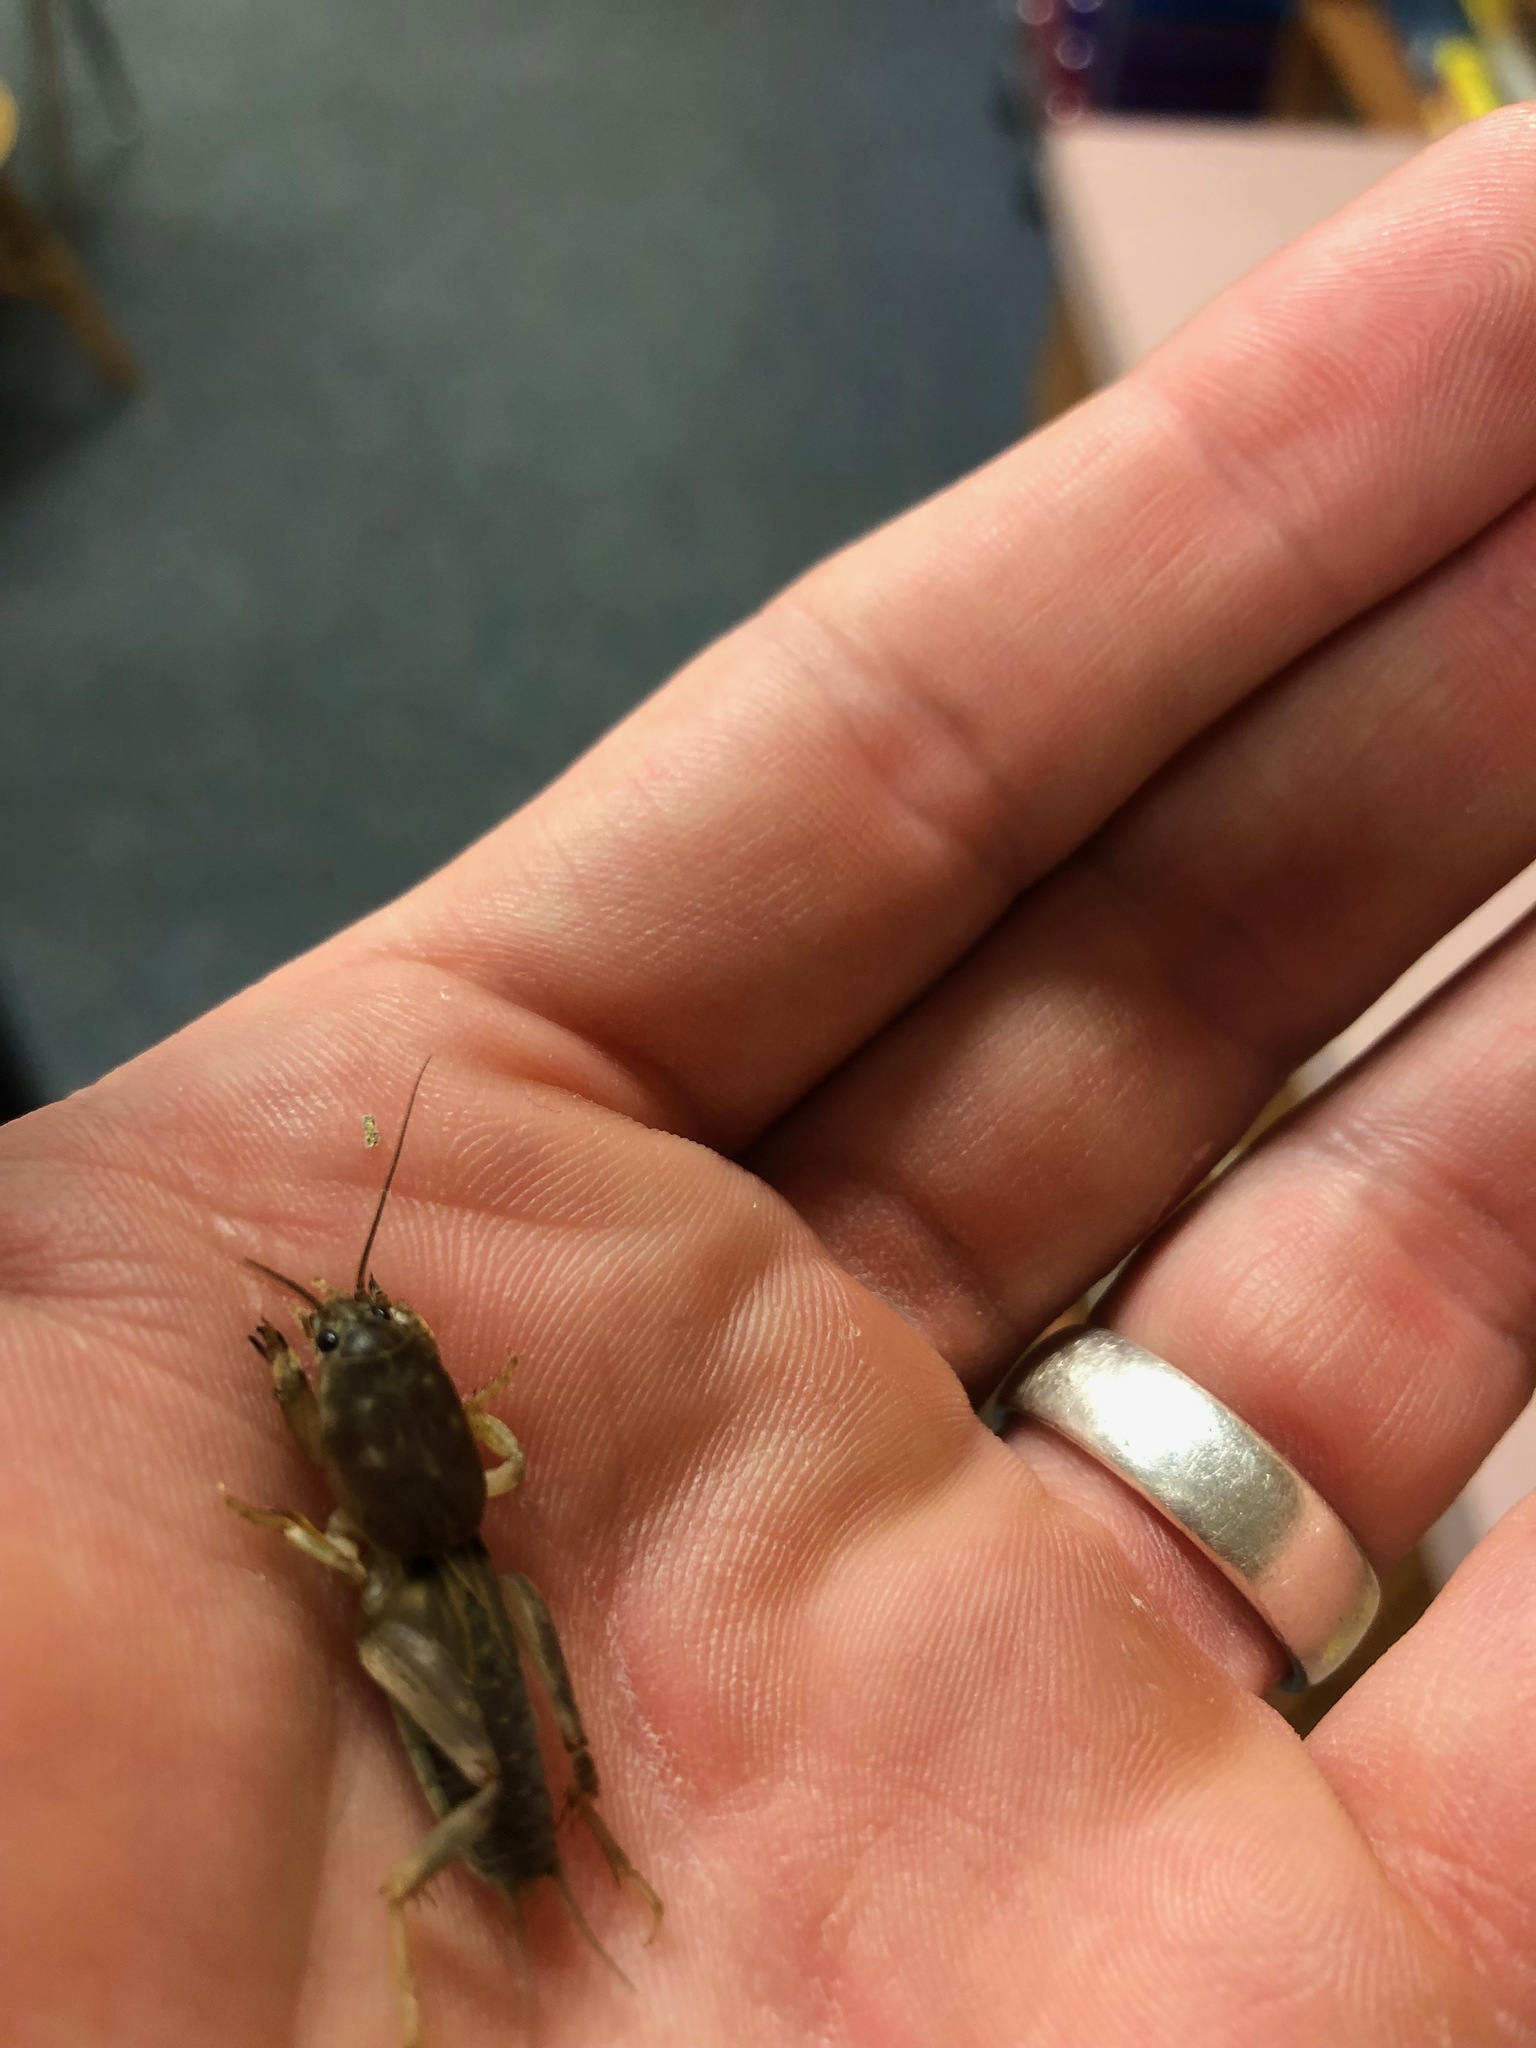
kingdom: Animalia
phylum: Arthropoda
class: Insecta
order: Orthoptera
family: Gryllotalpidae
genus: Neoscapteriscus
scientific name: Neoscapteriscus borellii
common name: Southern mole cricket
